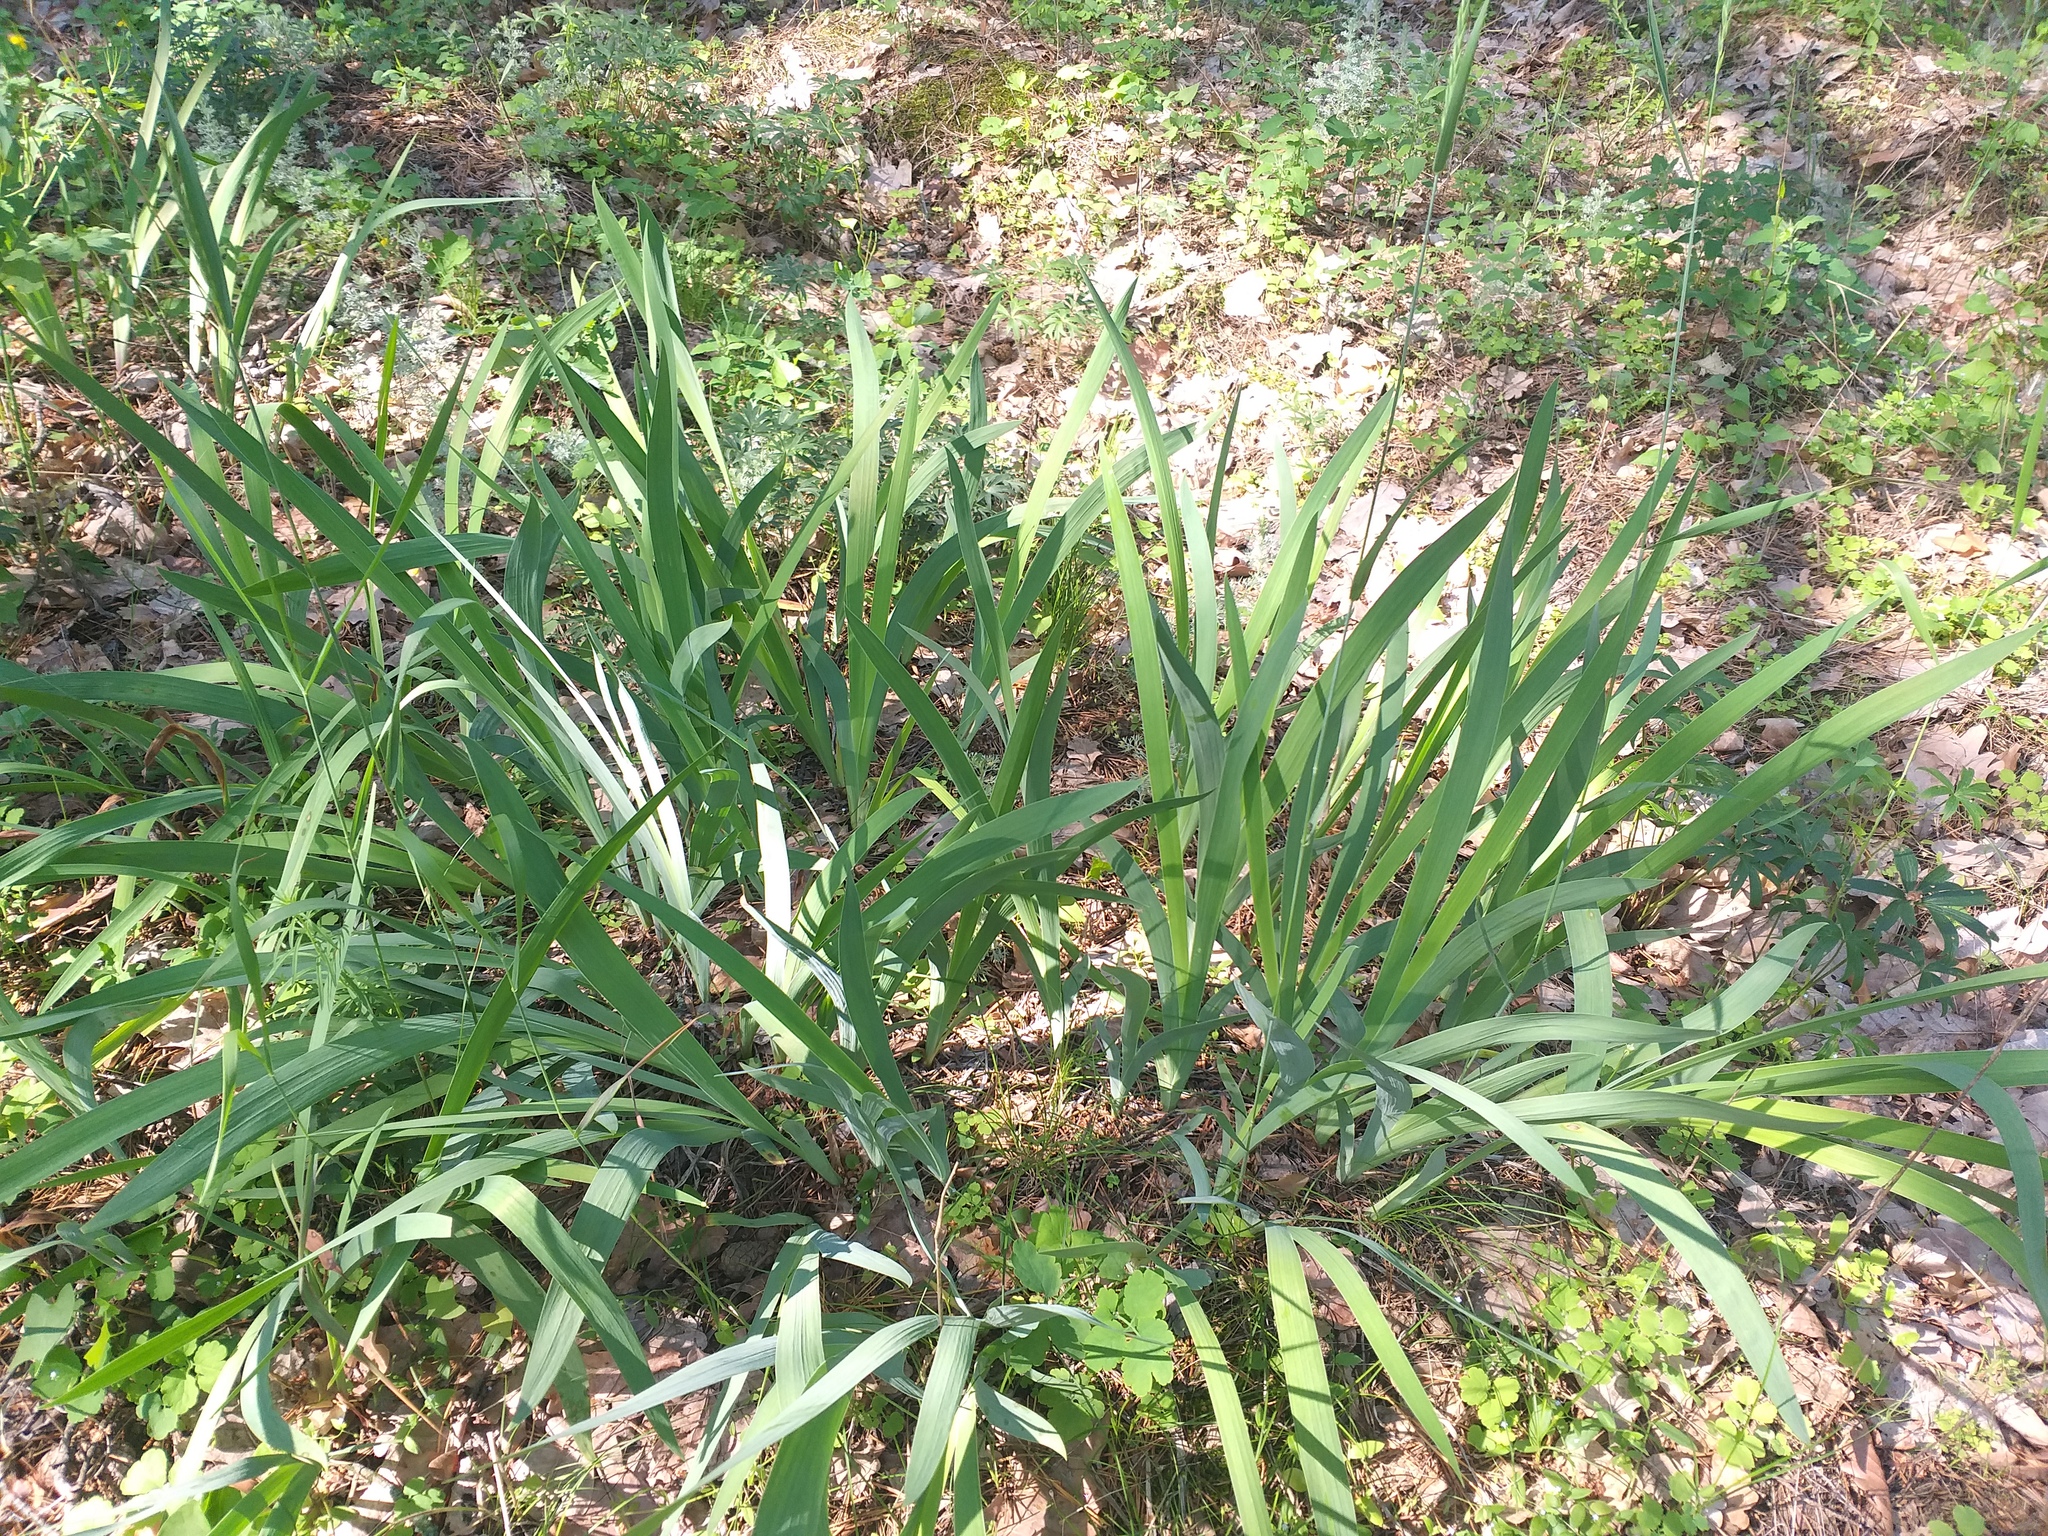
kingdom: Plantae
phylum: Tracheophyta
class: Liliopsida
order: Asparagales
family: Iridaceae
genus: Iris
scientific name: Iris arenaria
